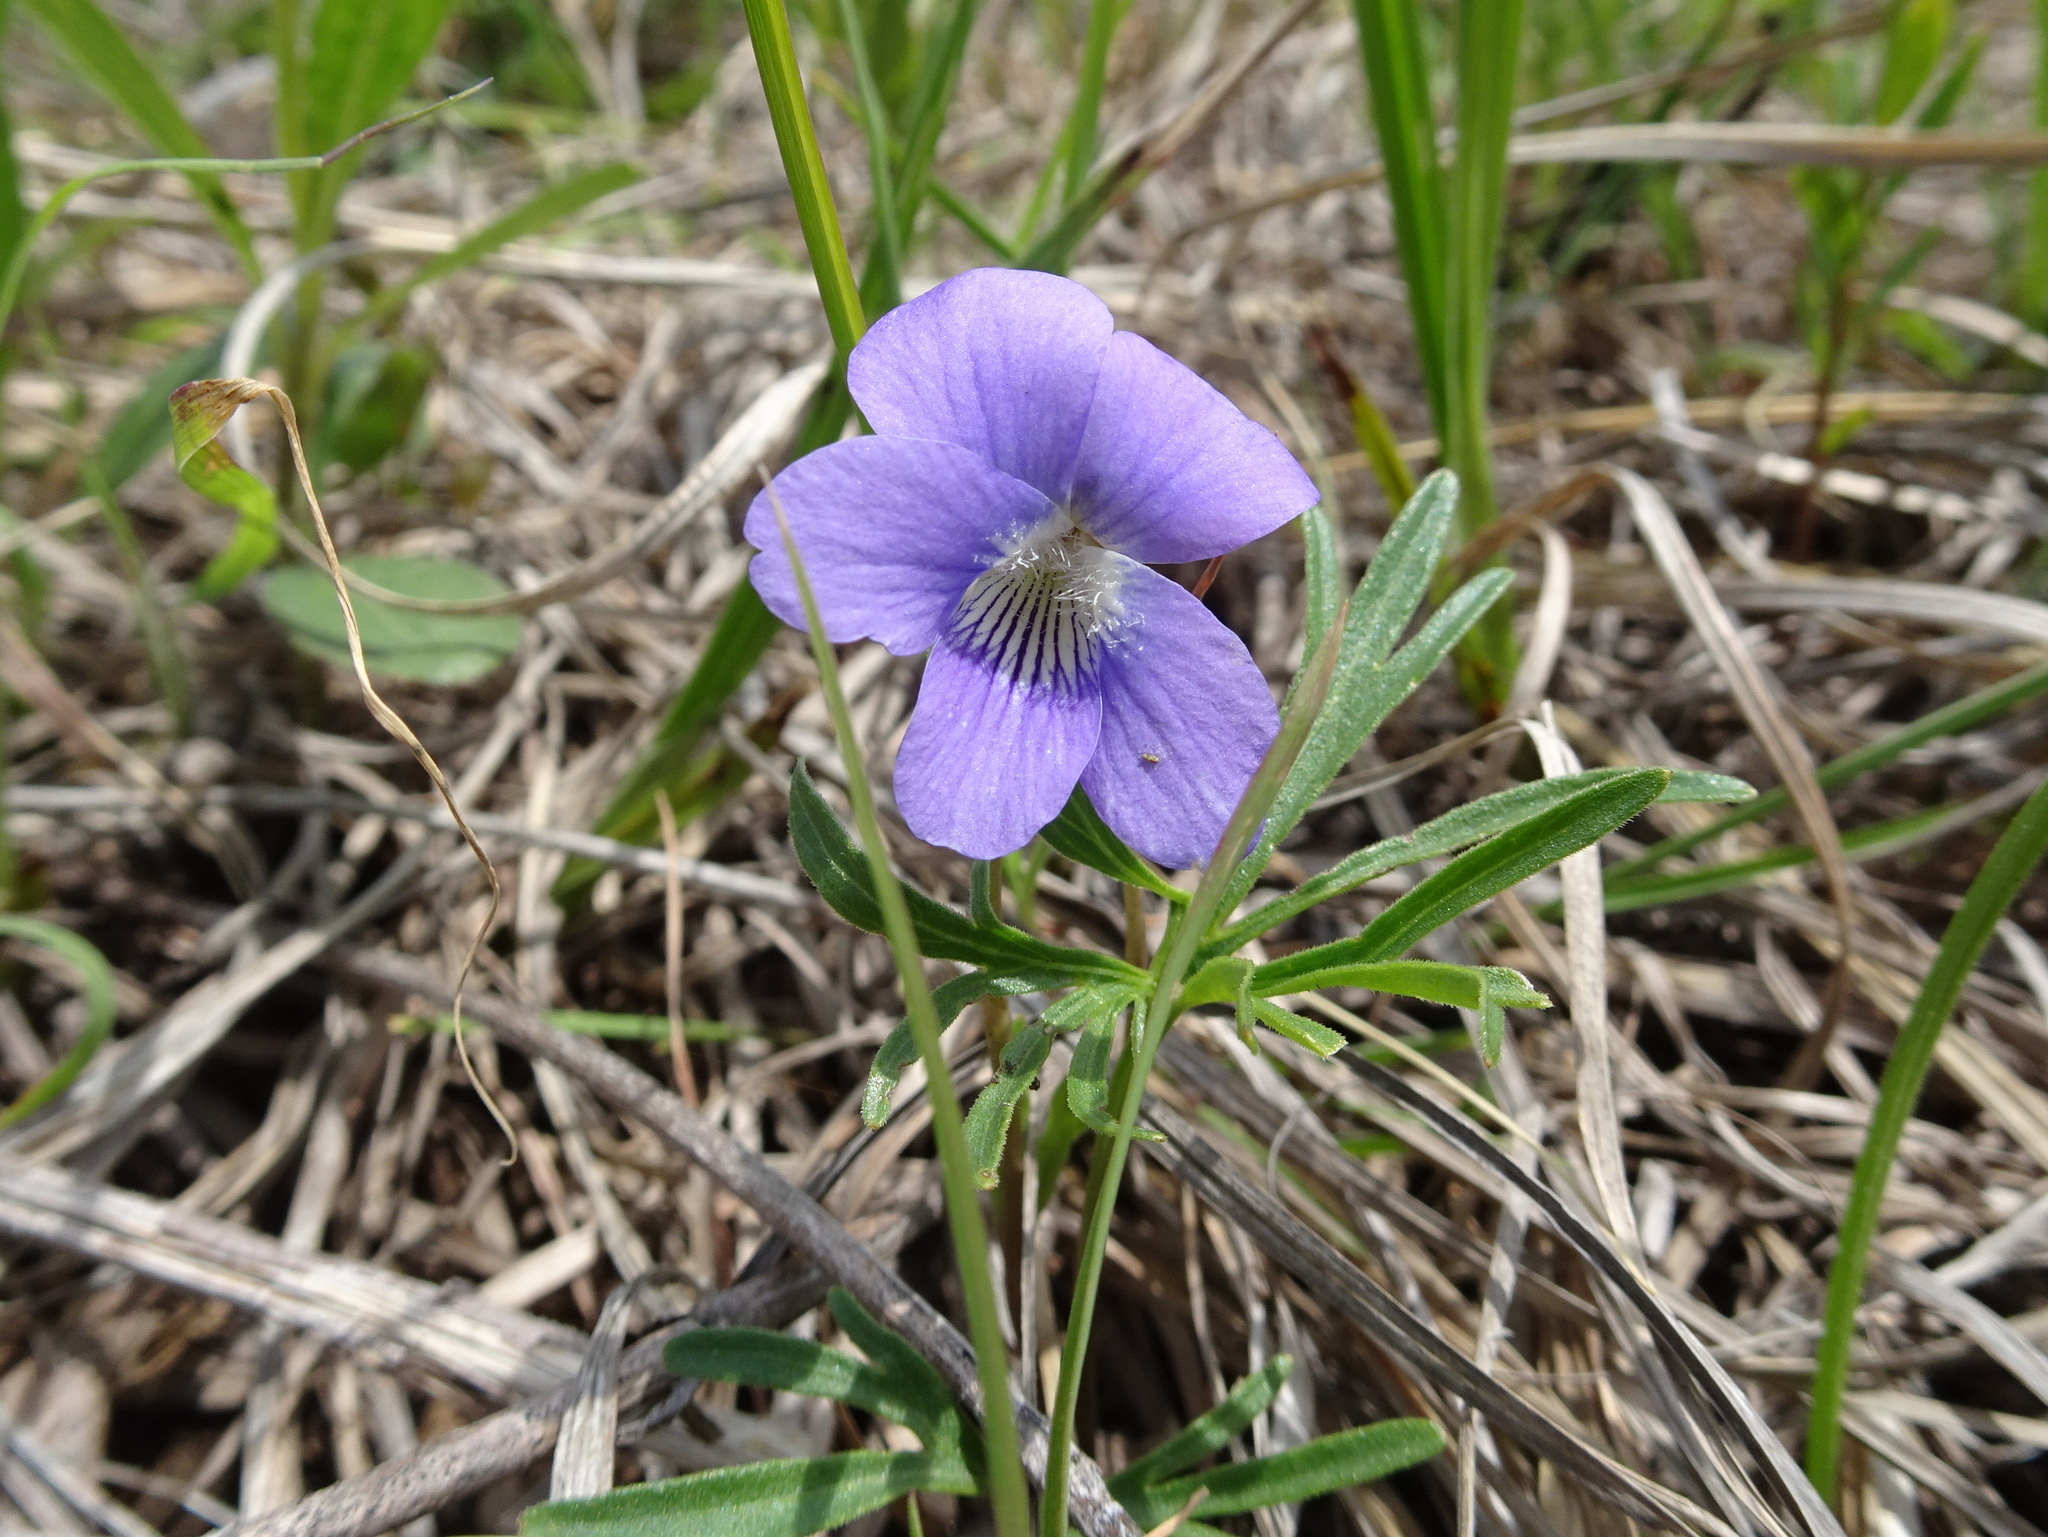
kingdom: Plantae
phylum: Tracheophyta
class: Magnoliopsida
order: Malpighiales
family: Violaceae
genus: Viola
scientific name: Viola pedatifida
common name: Prairie violet
